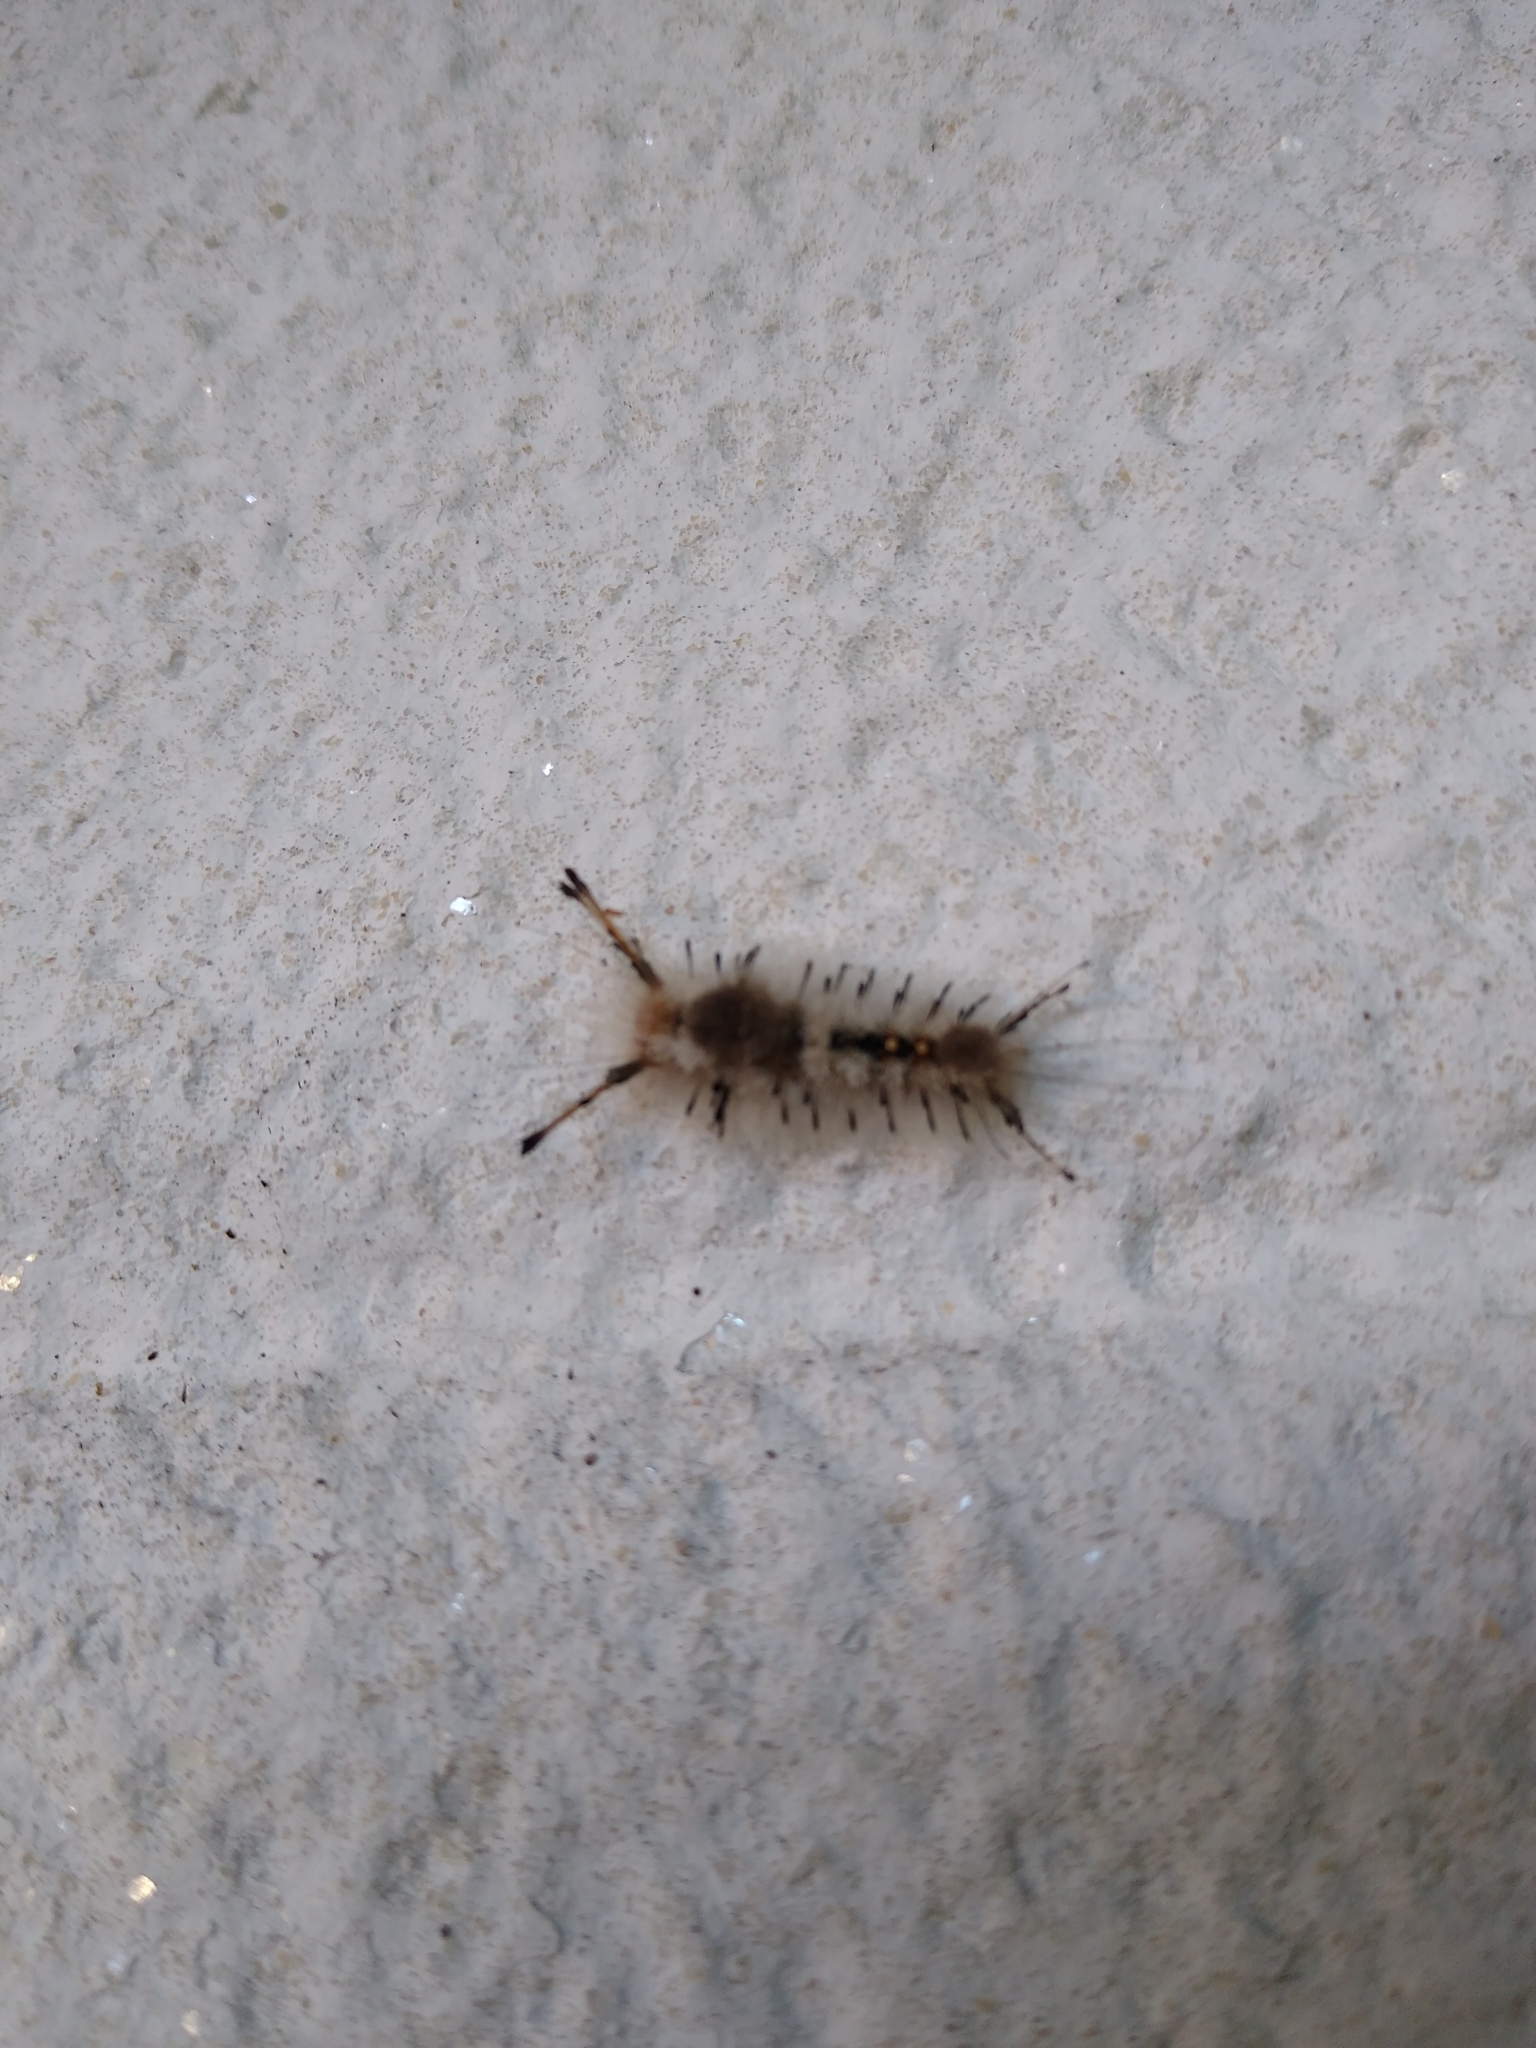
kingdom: Animalia
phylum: Arthropoda
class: Insecta
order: Lepidoptera
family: Erebidae
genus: Dasychira
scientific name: Dasychira meridionalis
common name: Southern tussock moth
